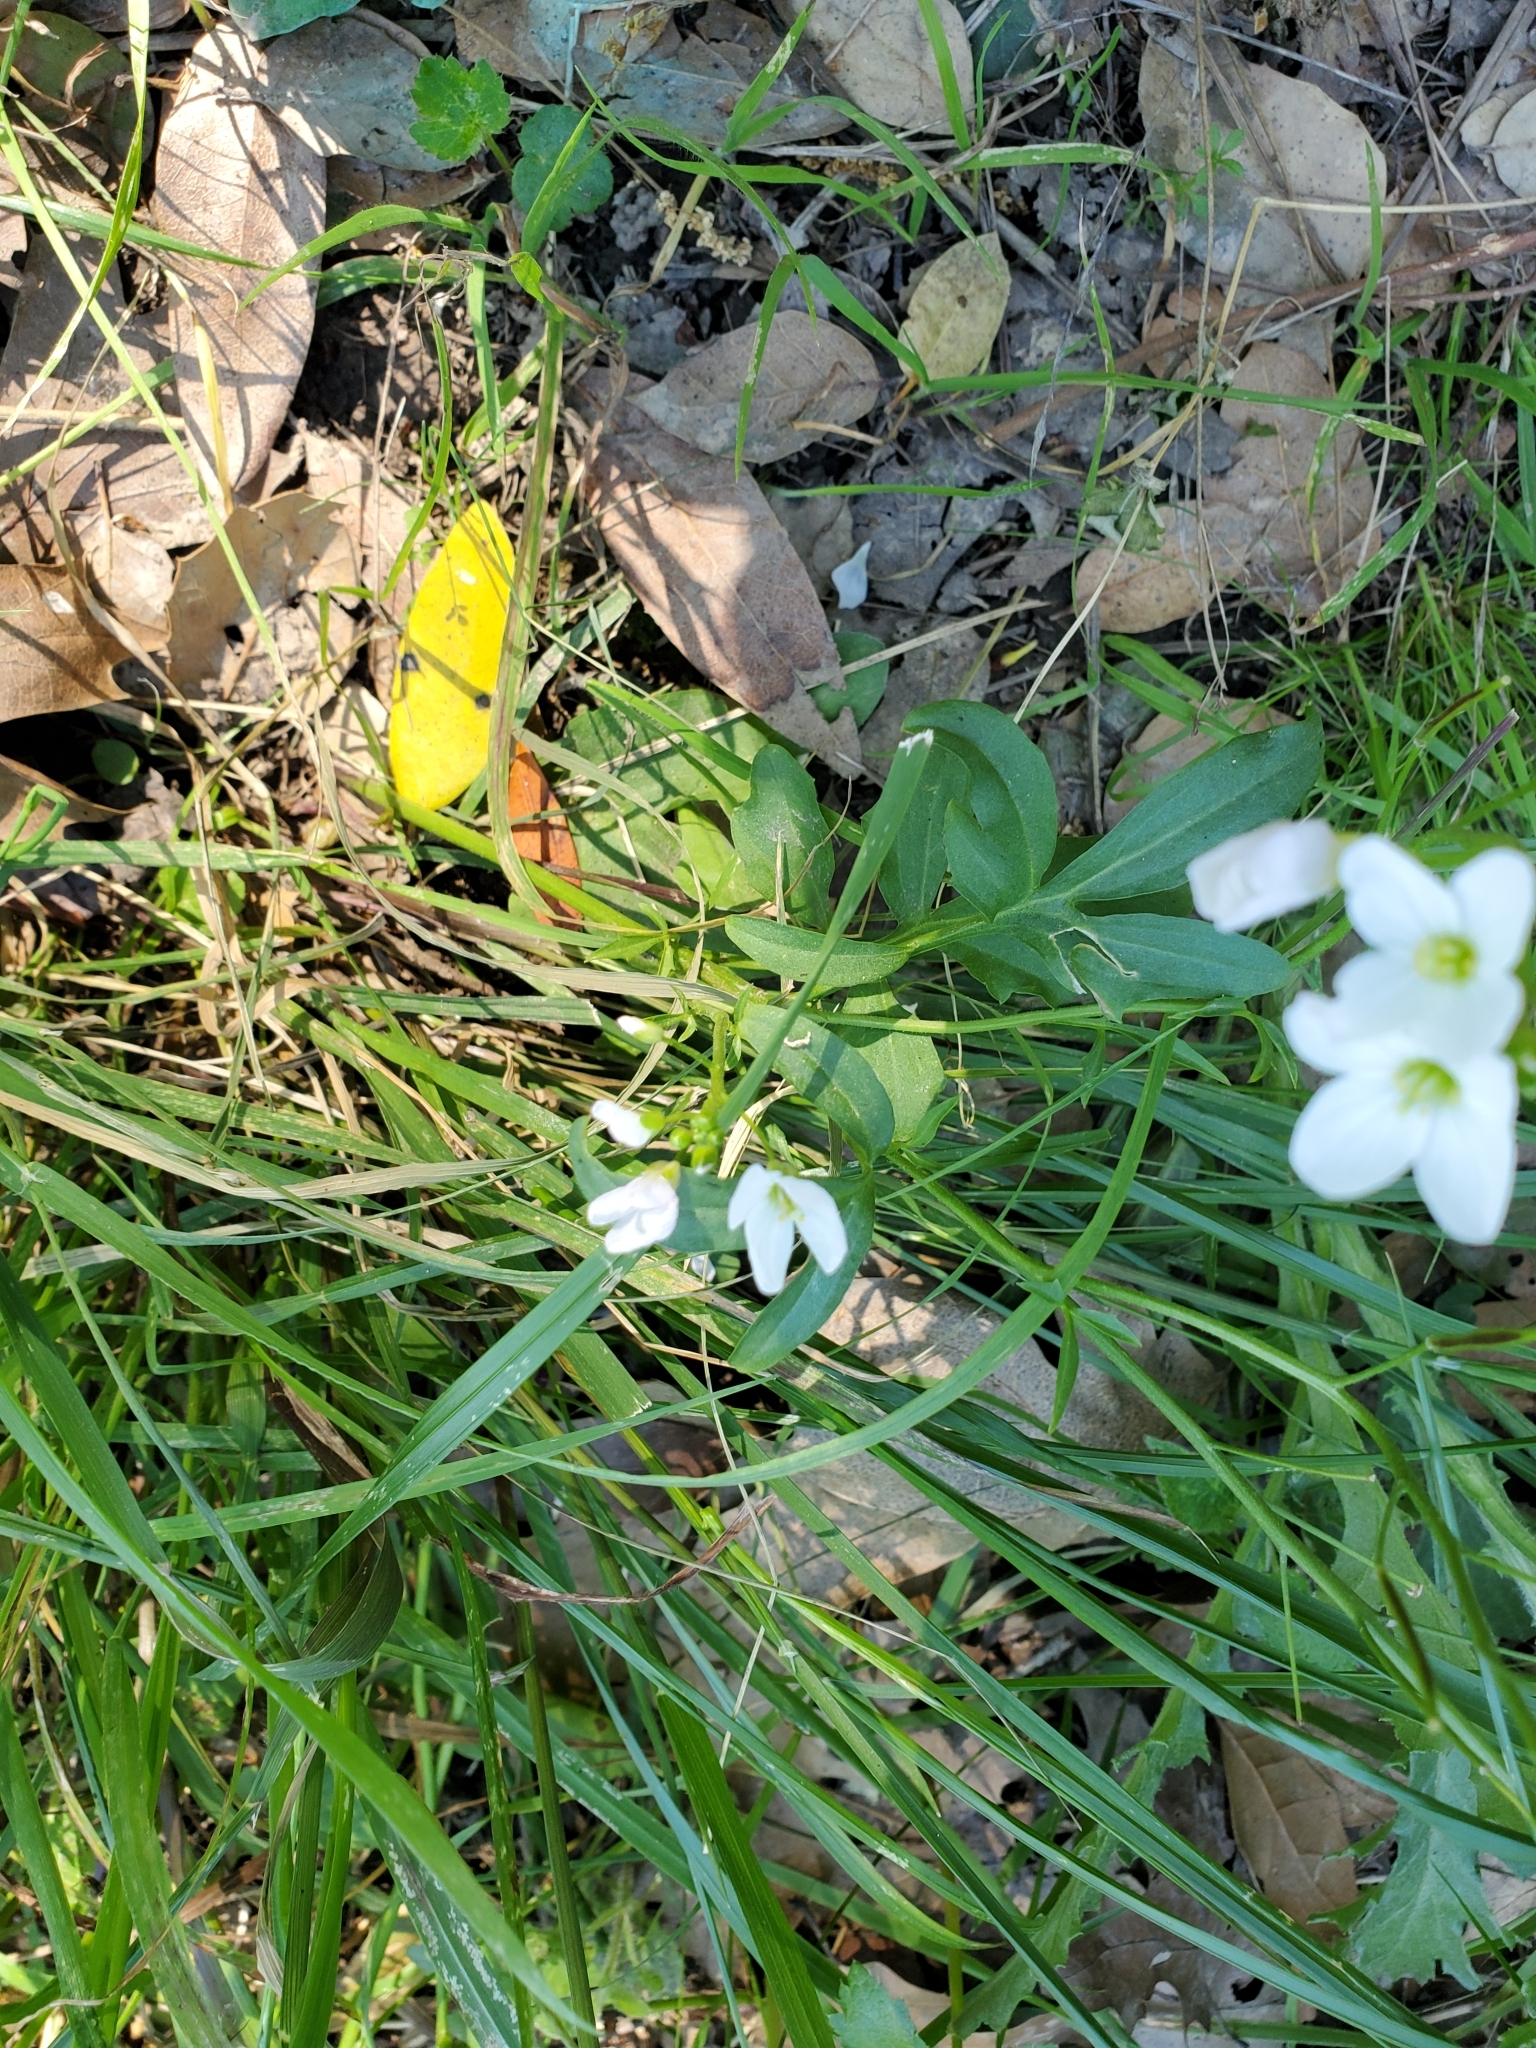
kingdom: Plantae
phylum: Tracheophyta
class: Magnoliopsida
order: Brassicales
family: Brassicaceae
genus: Cardamine
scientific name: Cardamine californica
